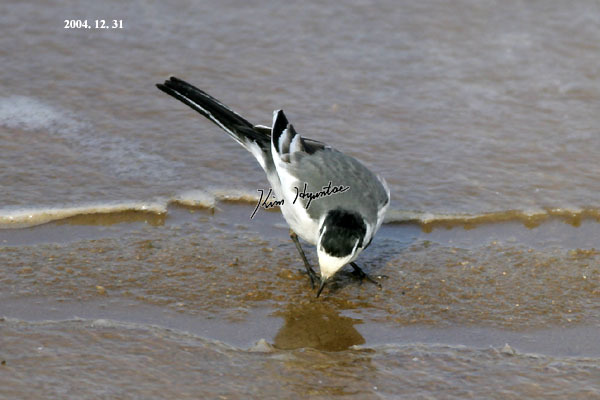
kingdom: Animalia
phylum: Chordata
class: Aves
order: Passeriformes
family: Motacillidae
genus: Motacilla
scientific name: Motacilla alba
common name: White wagtail
